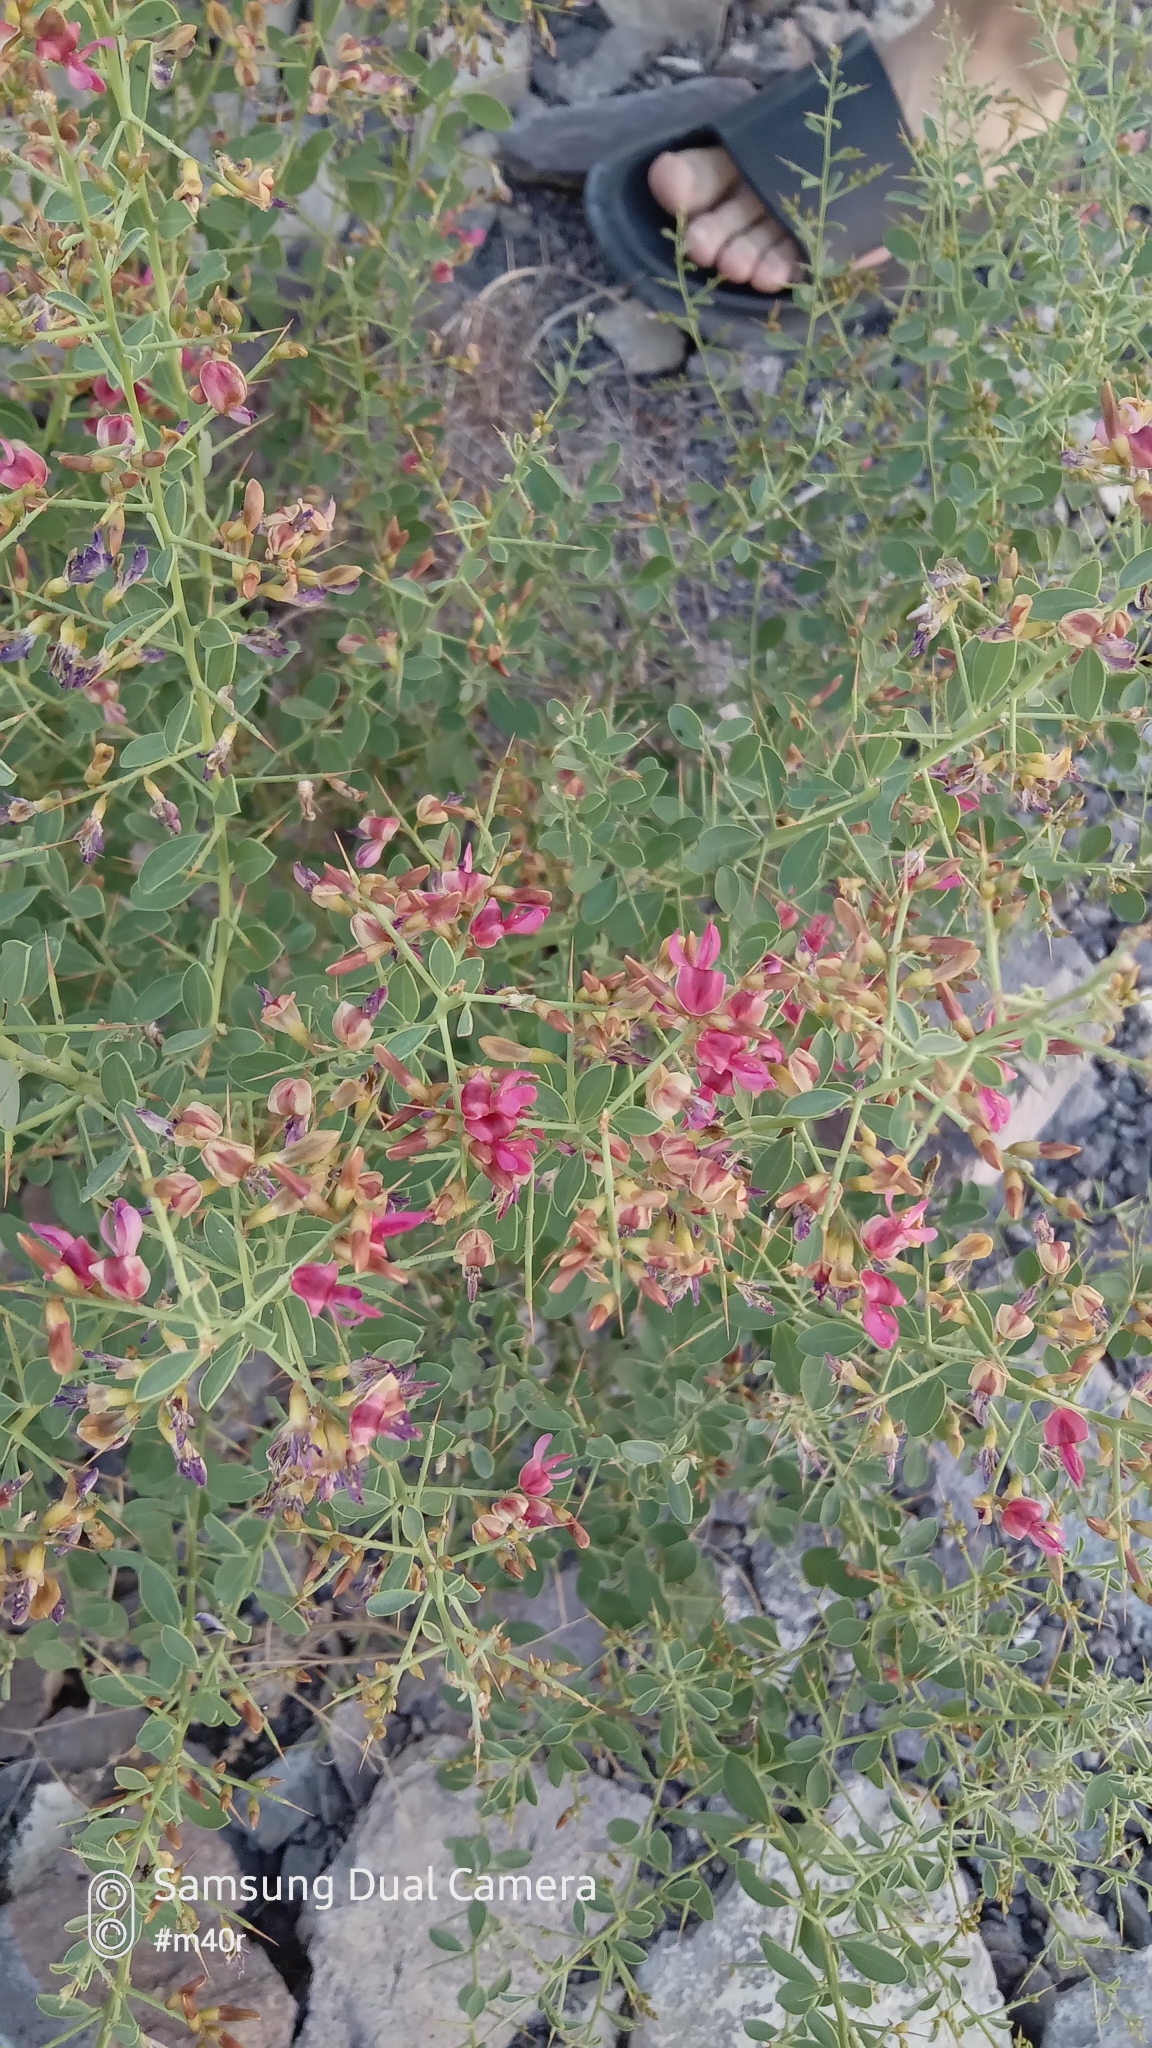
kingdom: Plantae
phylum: Tracheophyta
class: Magnoliopsida
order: Fabales
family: Fabaceae
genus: Alhagi
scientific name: Alhagi pseudalhagi
